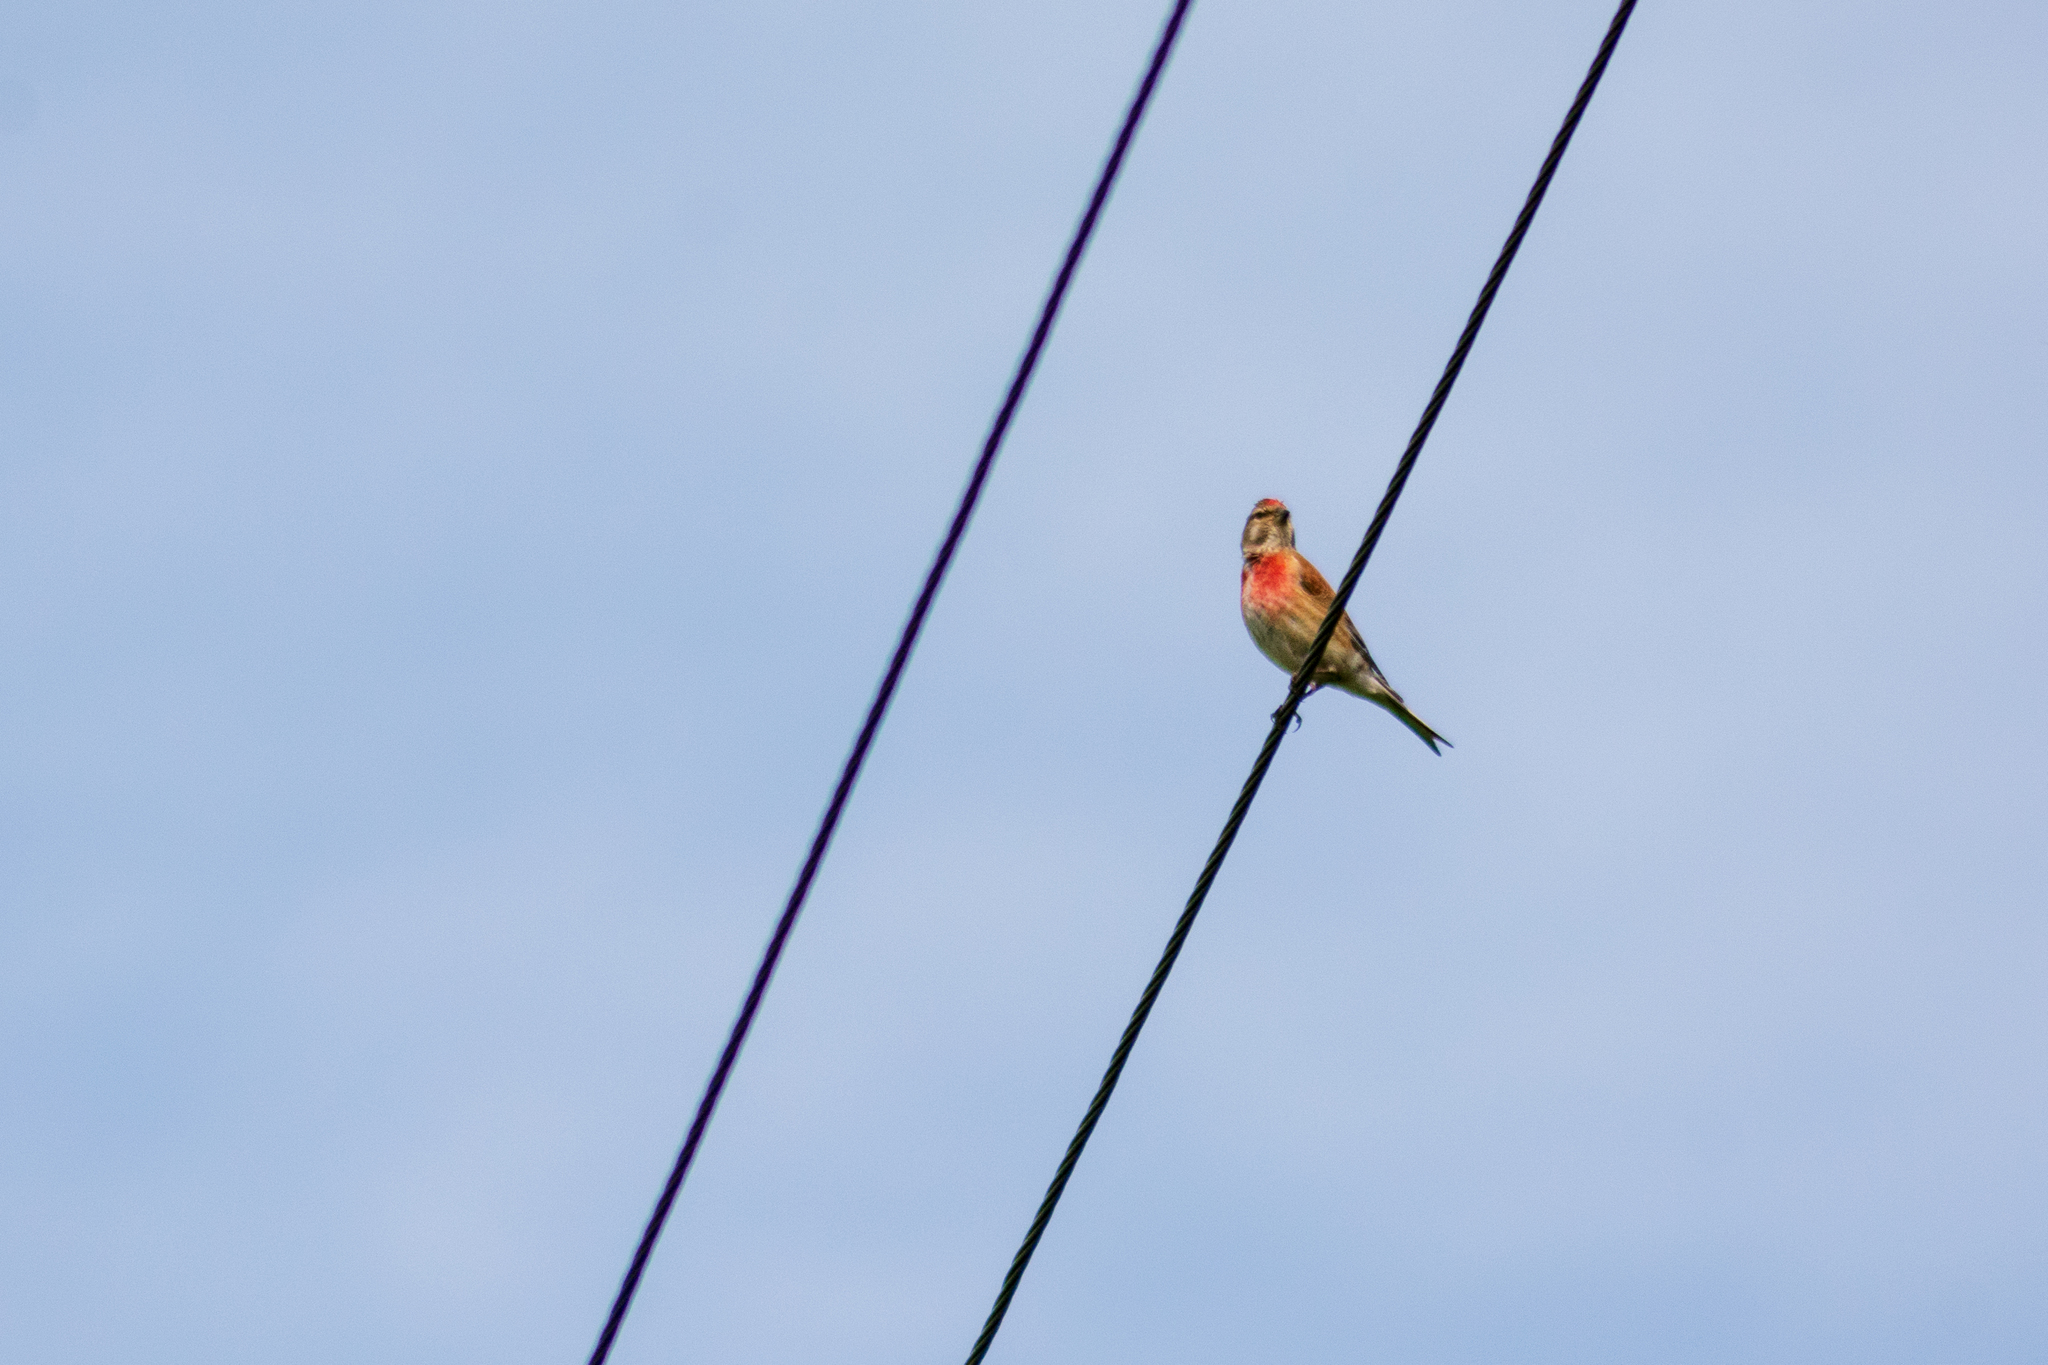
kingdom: Animalia
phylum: Chordata
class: Aves
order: Passeriformes
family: Fringillidae
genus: Linaria
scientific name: Linaria cannabina
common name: Common linnet
